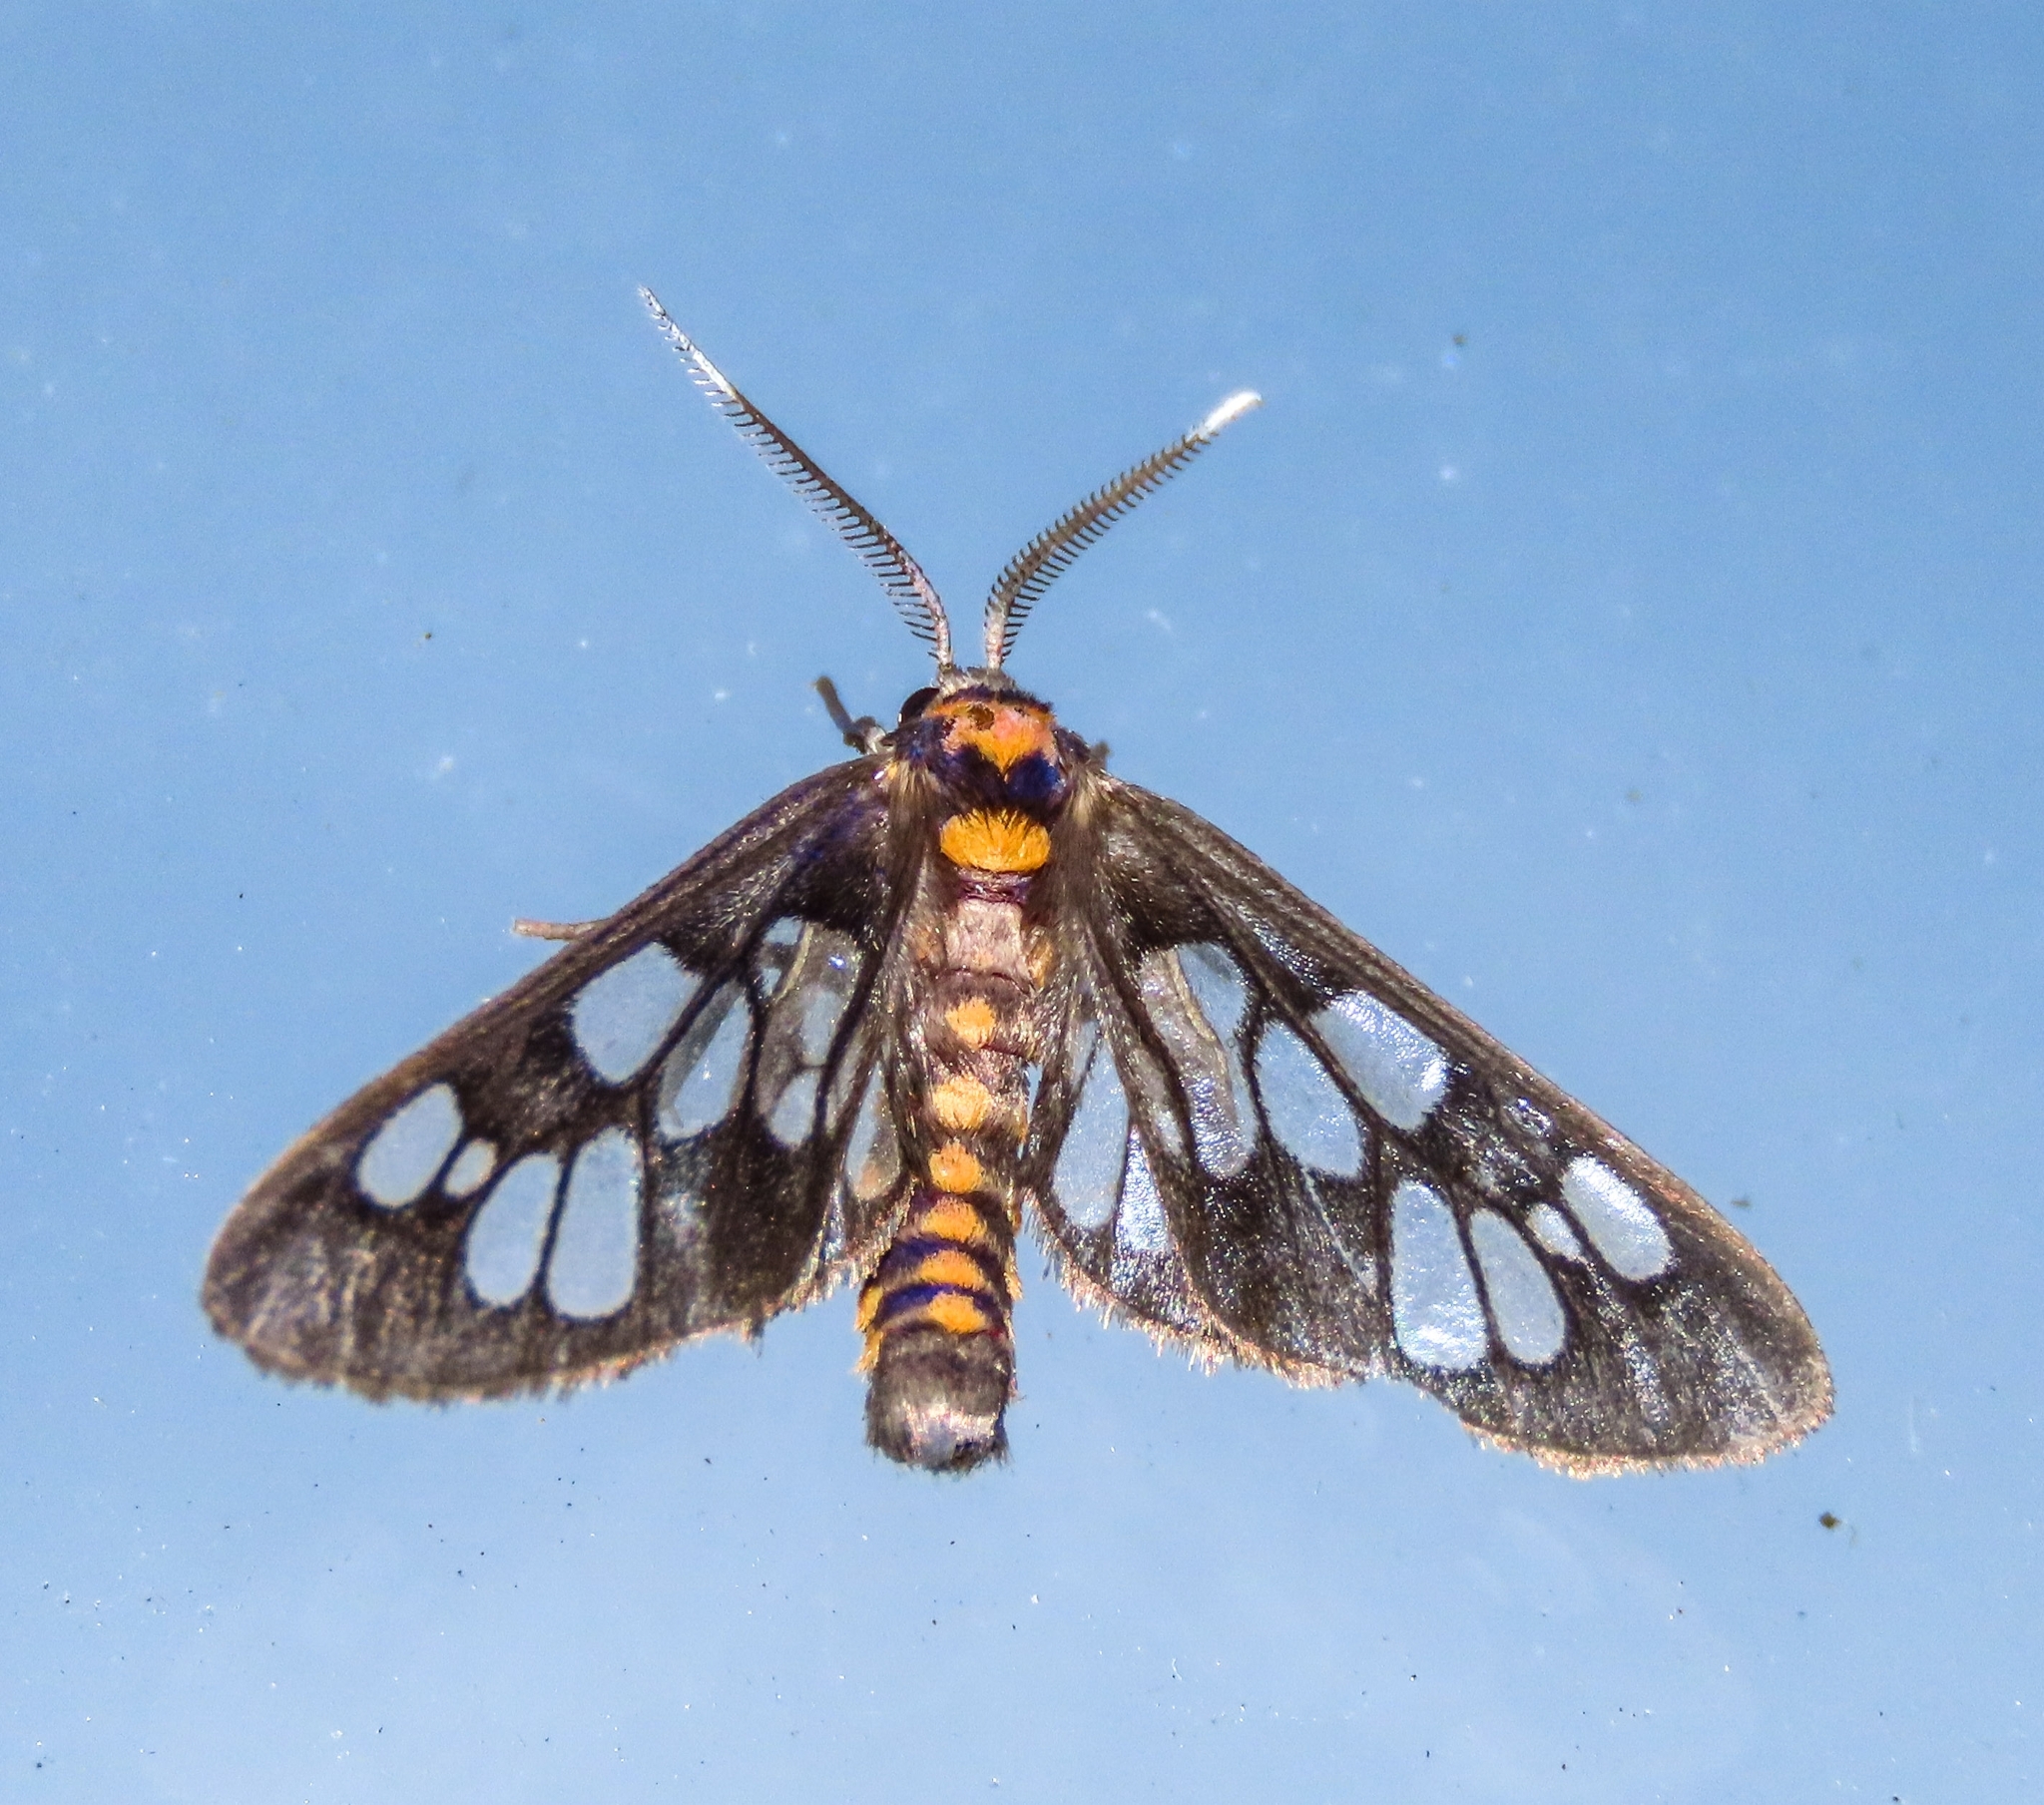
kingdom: Animalia
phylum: Arthropoda
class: Insecta
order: Lepidoptera
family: Erebidae
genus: Eressa
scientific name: Eressa confinis
